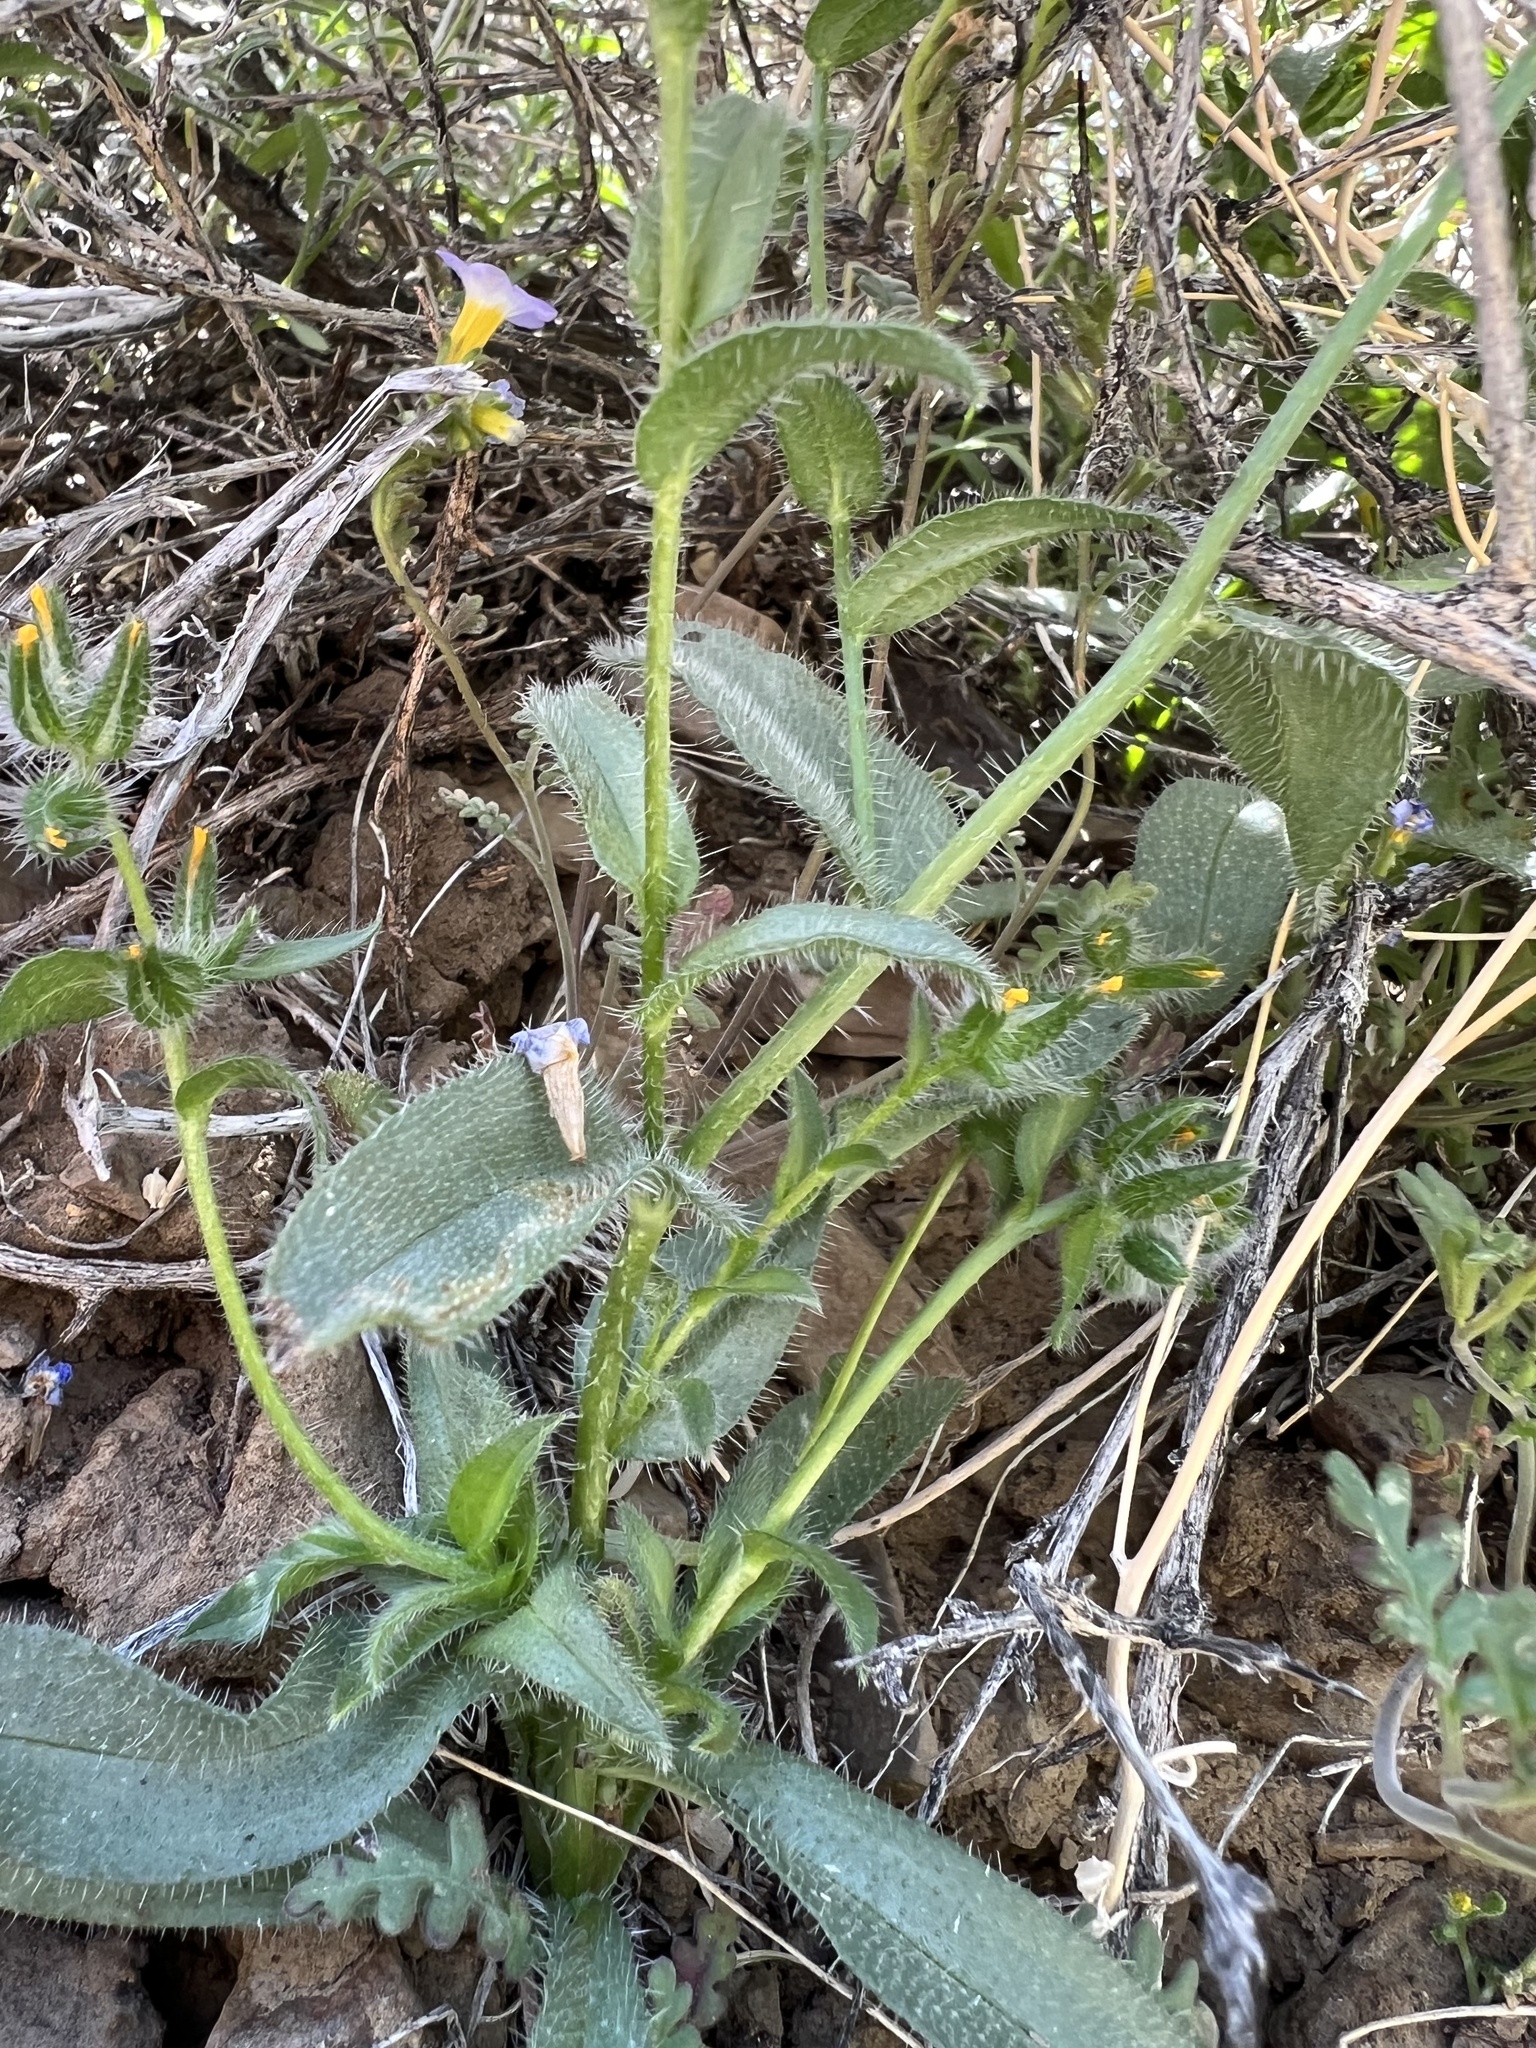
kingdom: Plantae
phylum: Tracheophyta
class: Magnoliopsida
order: Boraginales
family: Boraginaceae
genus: Amsinckia
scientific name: Amsinckia tessellata
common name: Tessellate fiddleneck
